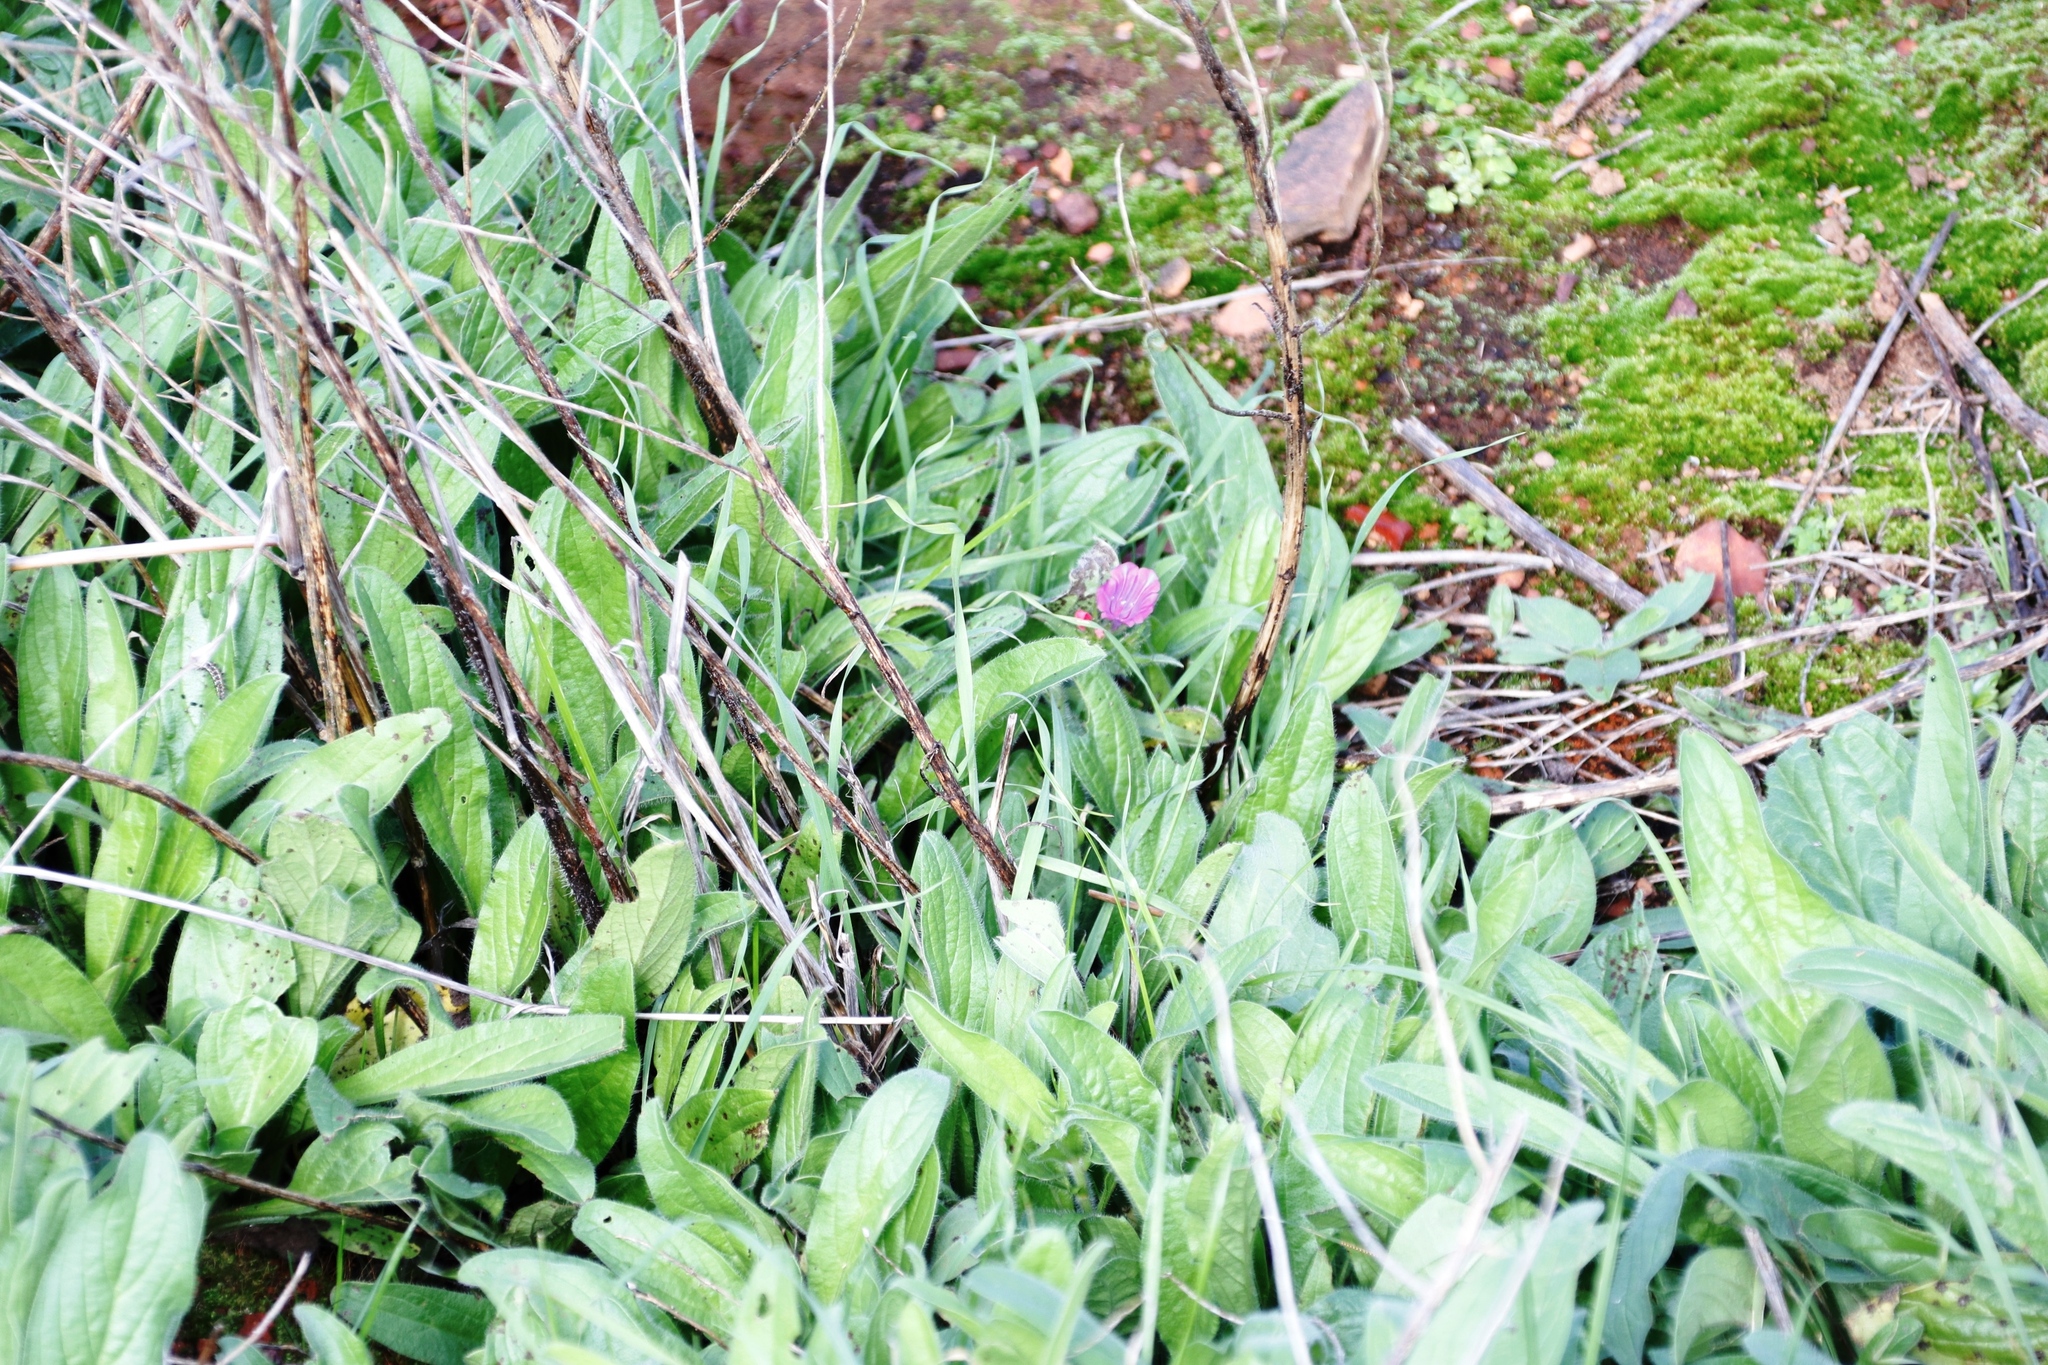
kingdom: Plantae
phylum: Tracheophyta
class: Magnoliopsida
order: Boraginales
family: Boraginaceae
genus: Echium
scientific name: Echium plantagineum
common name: Purple viper's-bugloss
